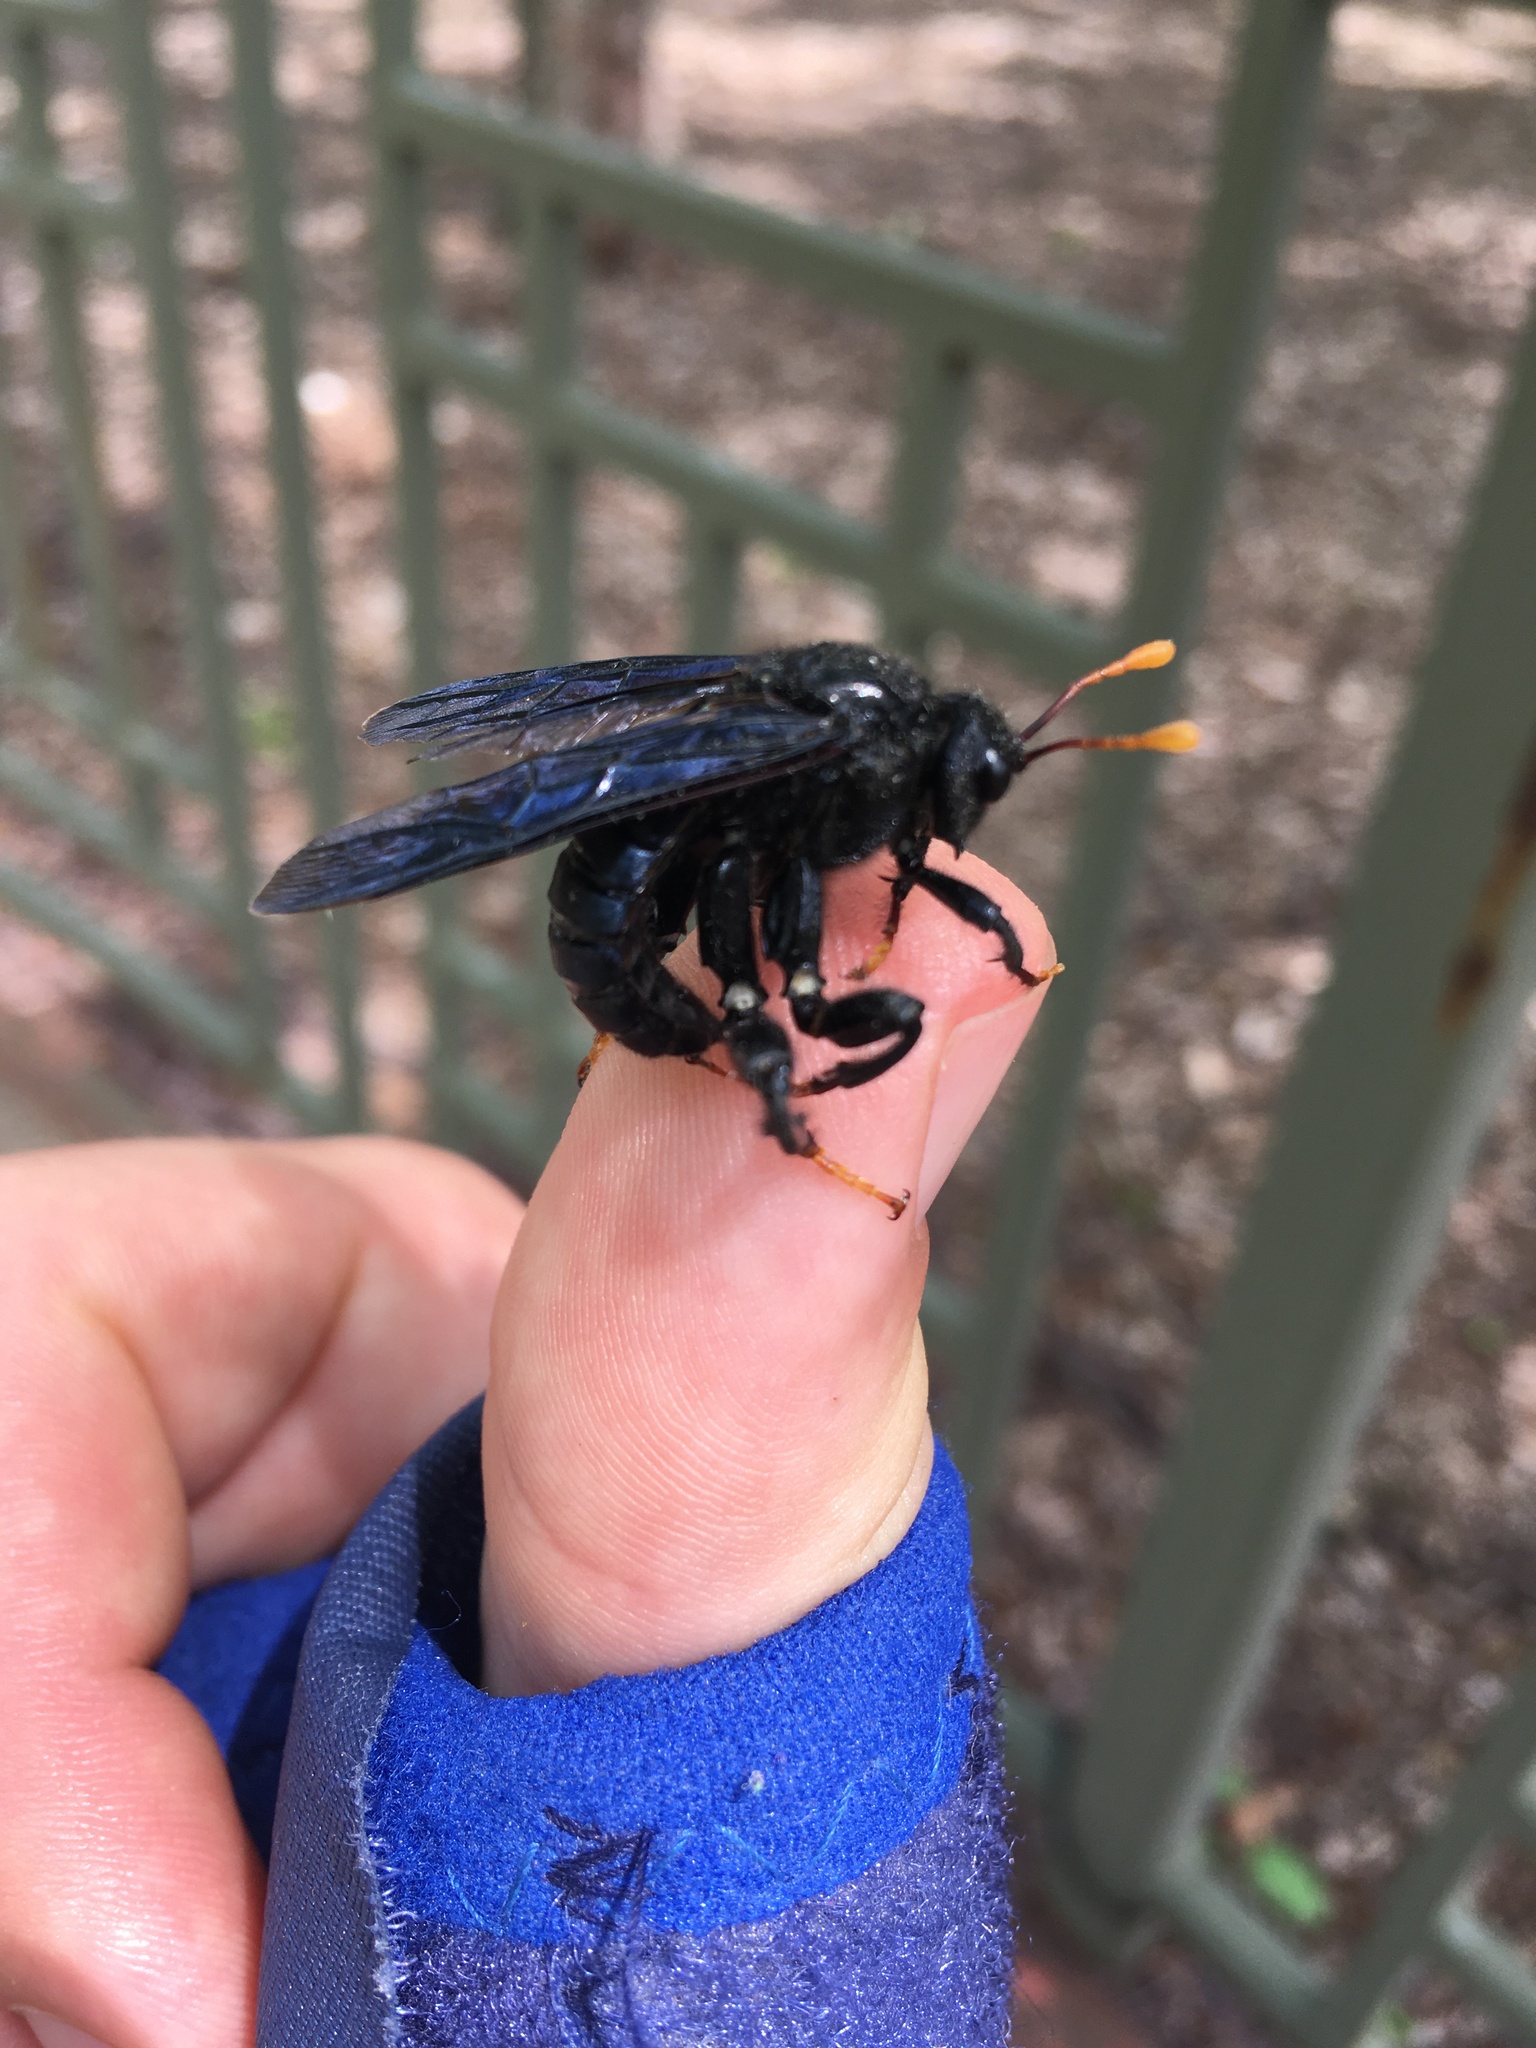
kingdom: Animalia
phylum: Arthropoda
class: Insecta
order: Hymenoptera
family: Cimbicidae
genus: Cimbex
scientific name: Cimbex americana
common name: Elm sawfly
